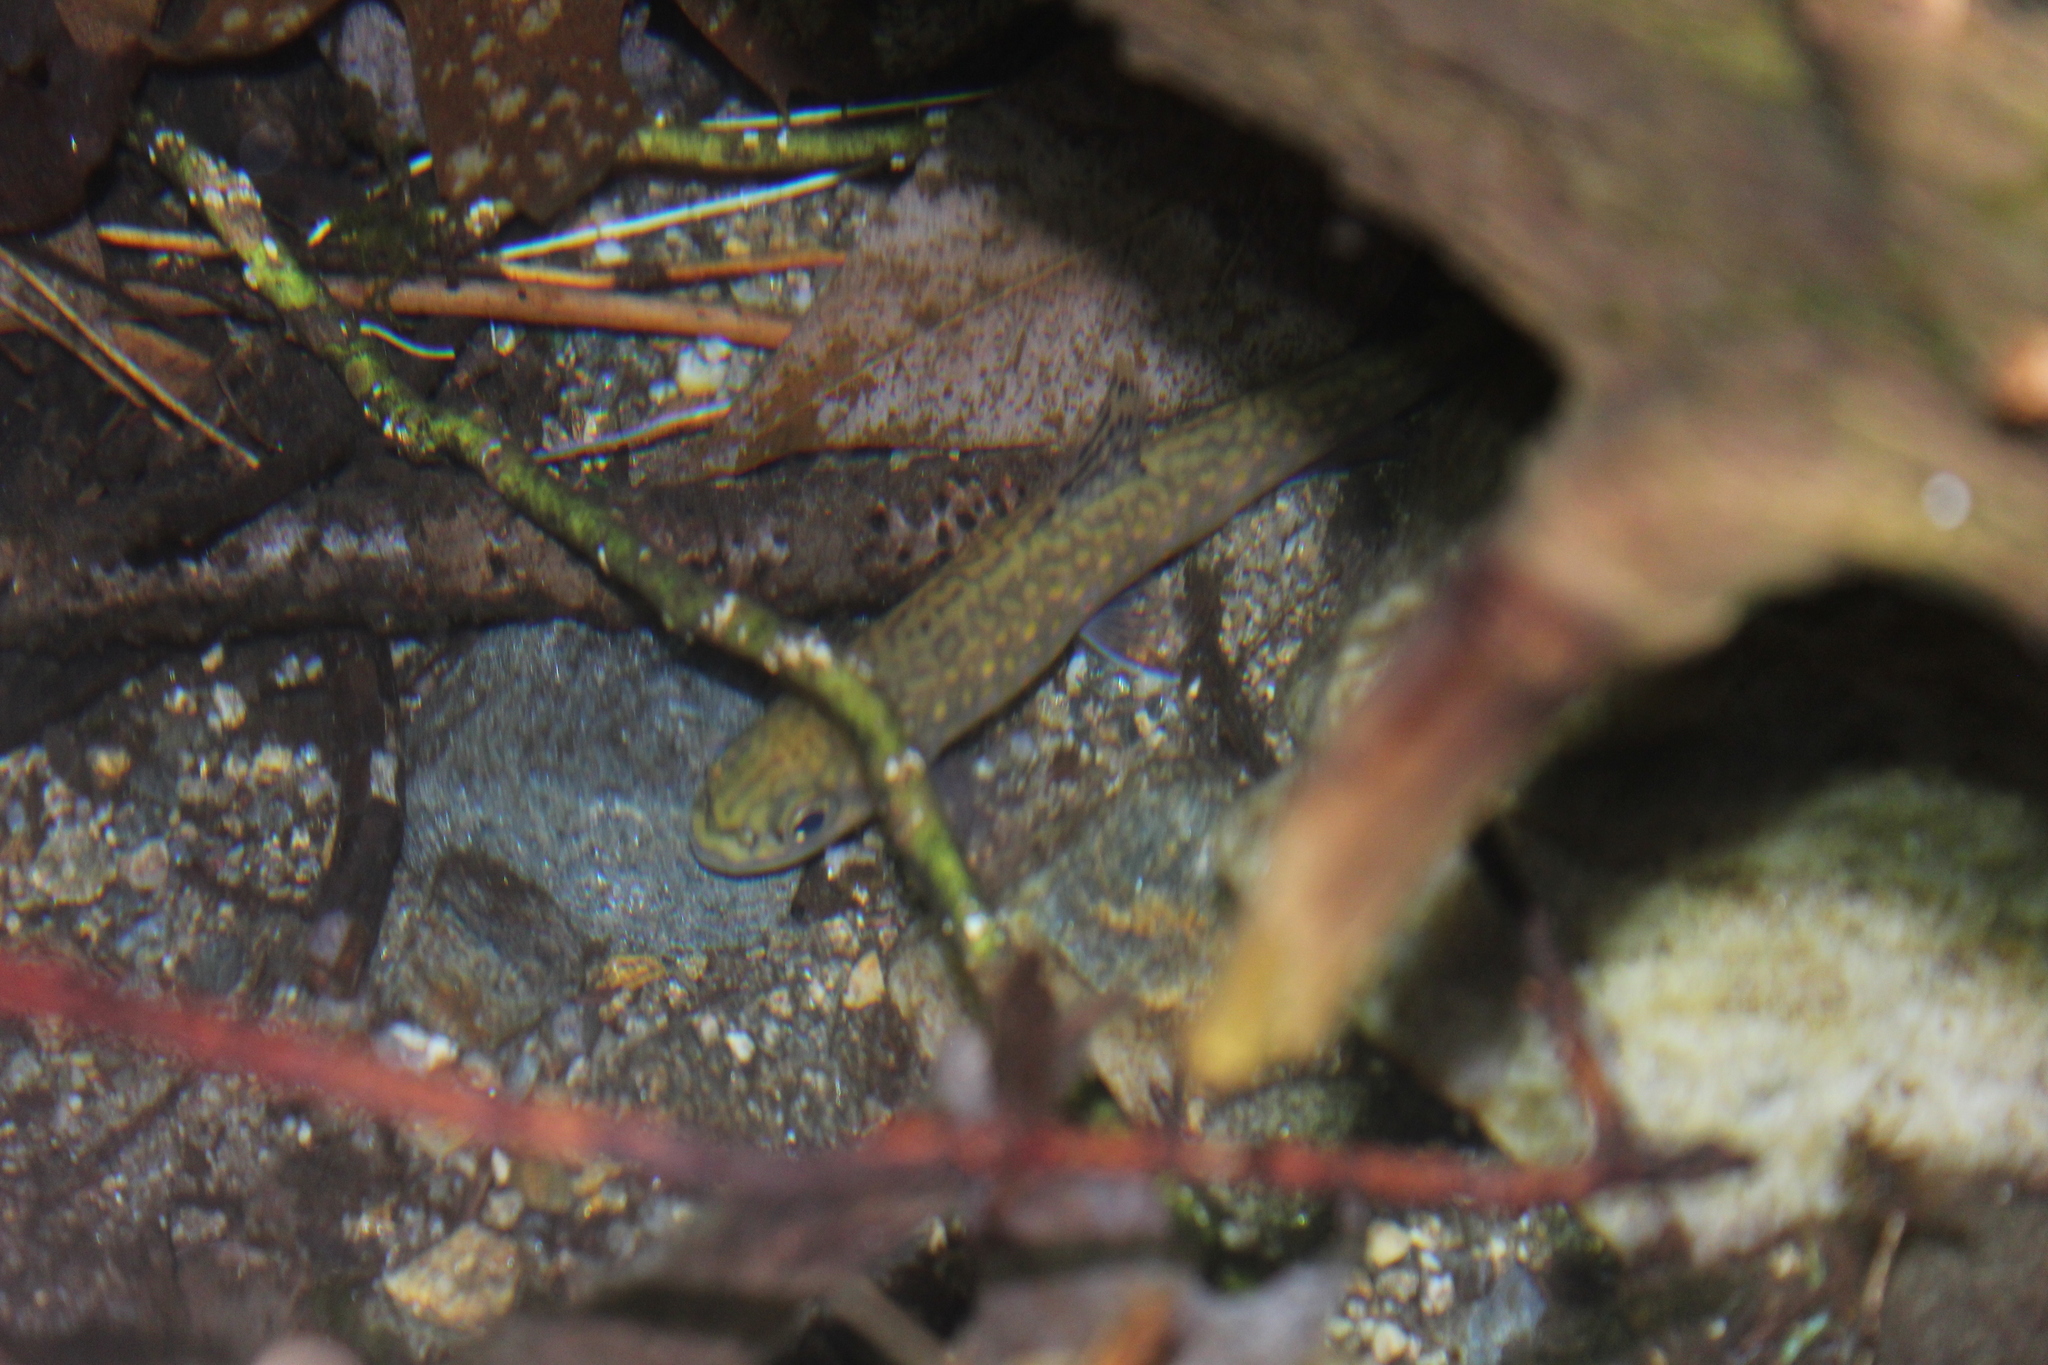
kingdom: Animalia
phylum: Chordata
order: Salmoniformes
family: Salmonidae
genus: Salvelinus
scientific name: Salvelinus fontinalis
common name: Brook trout
